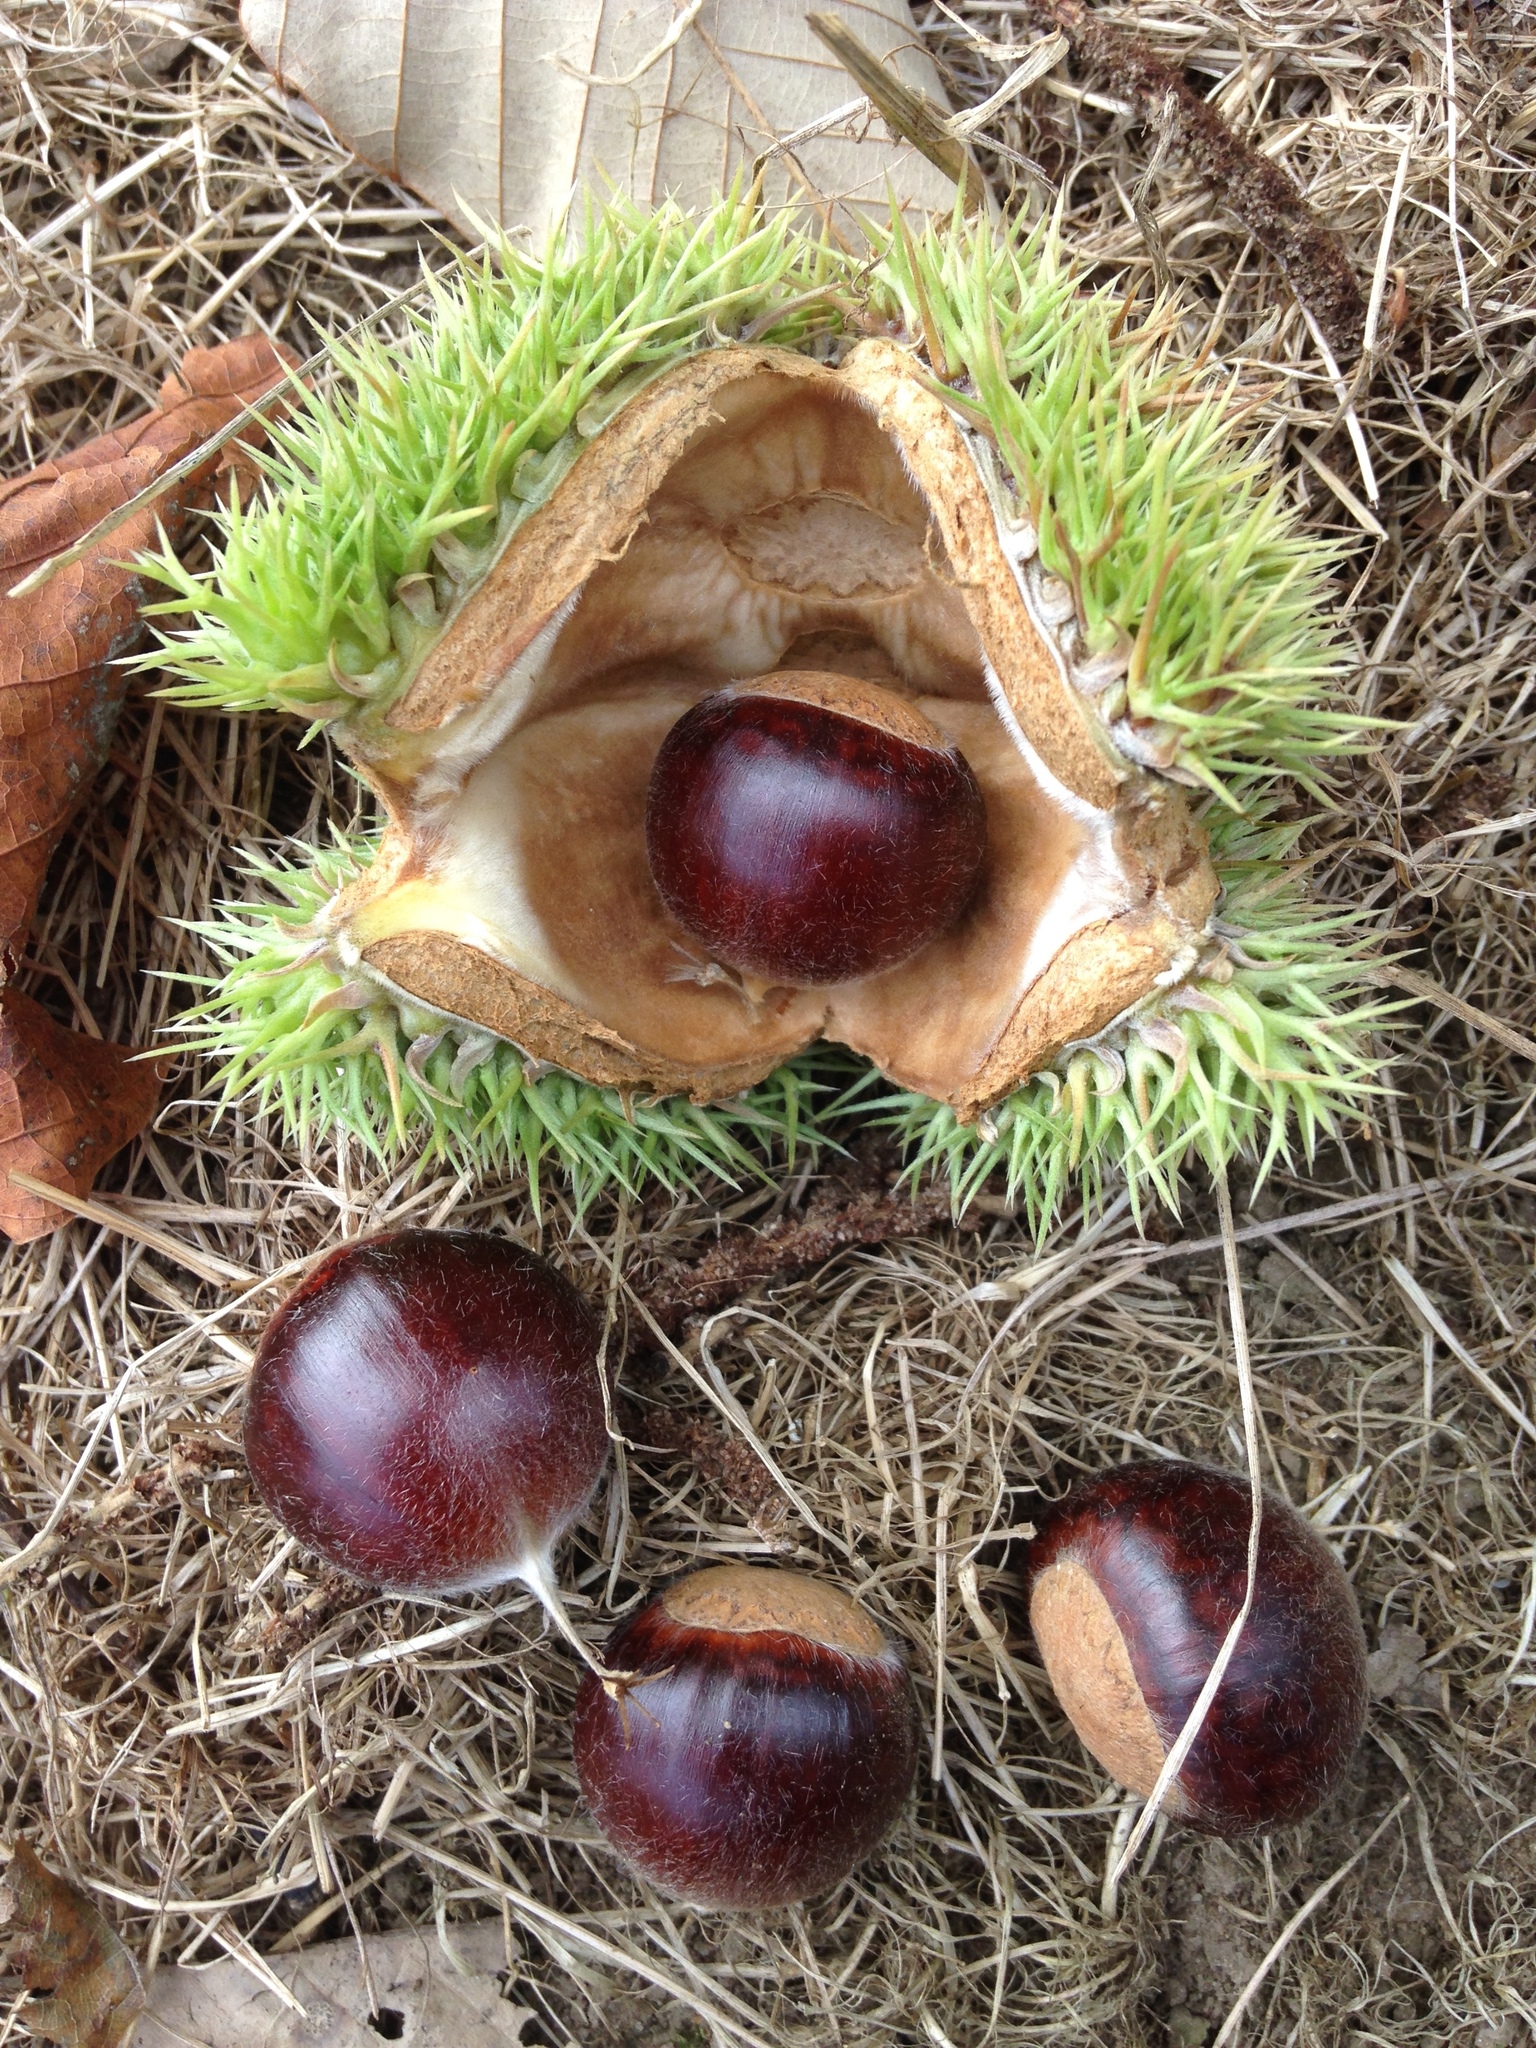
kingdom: Plantae
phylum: Tracheophyta
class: Magnoliopsida
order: Fagales
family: Fagaceae
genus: Castanea
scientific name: Castanea mollissima
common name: Chinese chestnut
